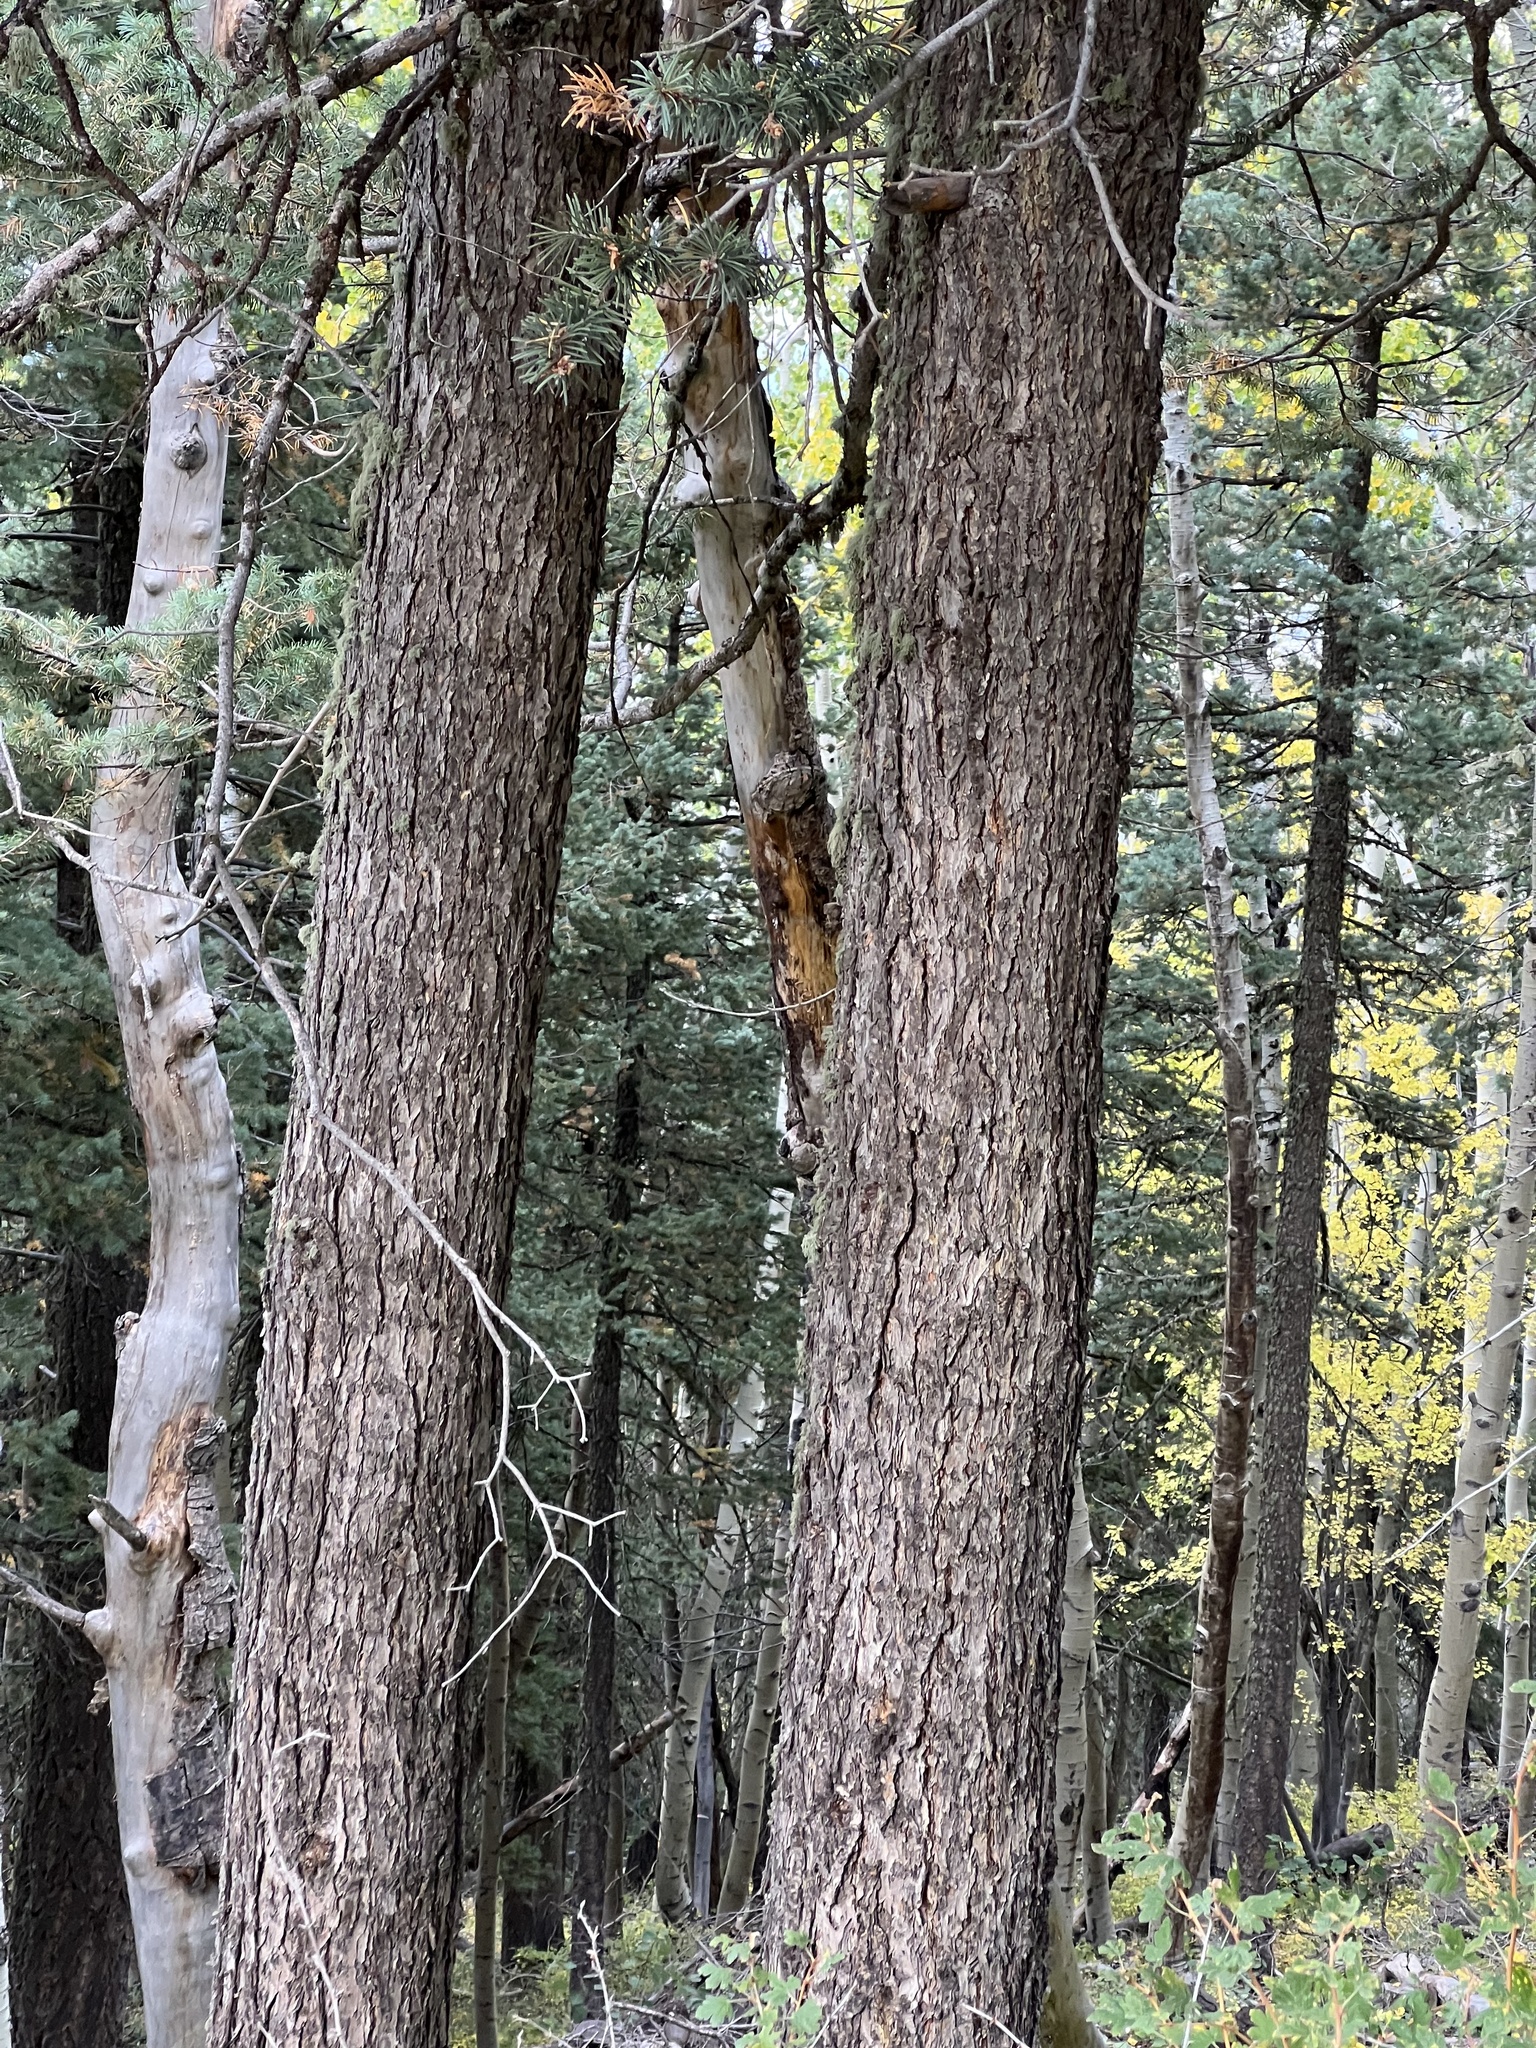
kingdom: Plantae
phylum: Tracheophyta
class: Pinopsida
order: Pinales
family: Pinaceae
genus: Pseudotsuga
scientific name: Pseudotsuga menziesii
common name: Douglas fir
